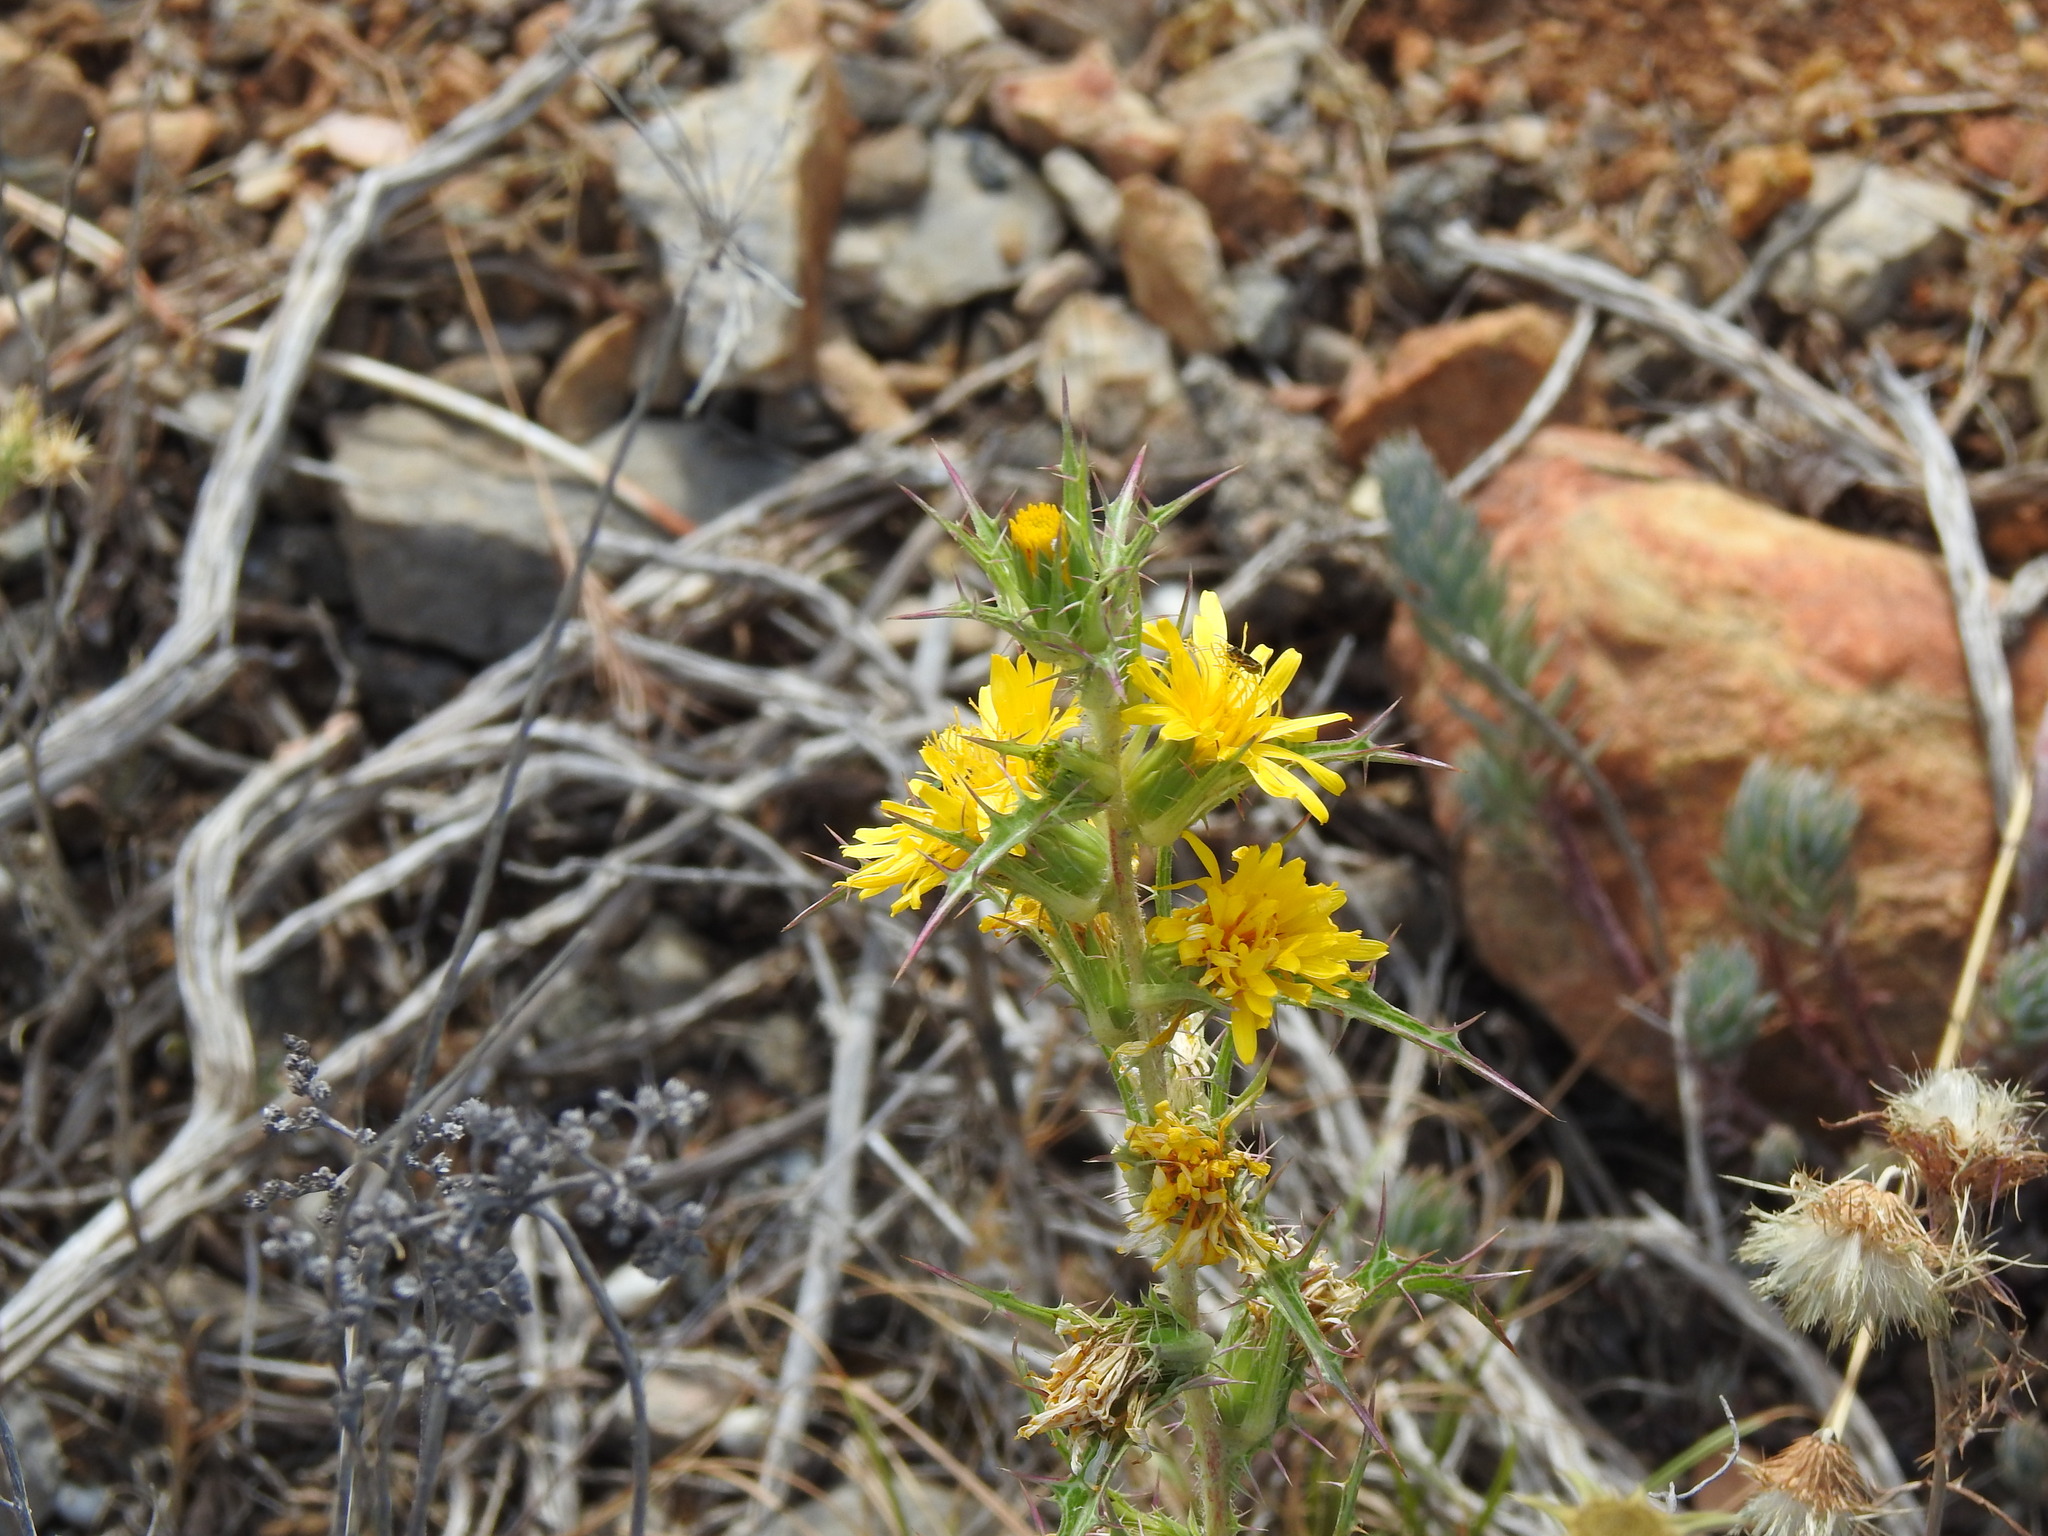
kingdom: Plantae
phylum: Tracheophyta
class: Magnoliopsida
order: Asterales
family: Asteraceae
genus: Scolymus
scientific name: Scolymus hispanicus
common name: Golden thistle
